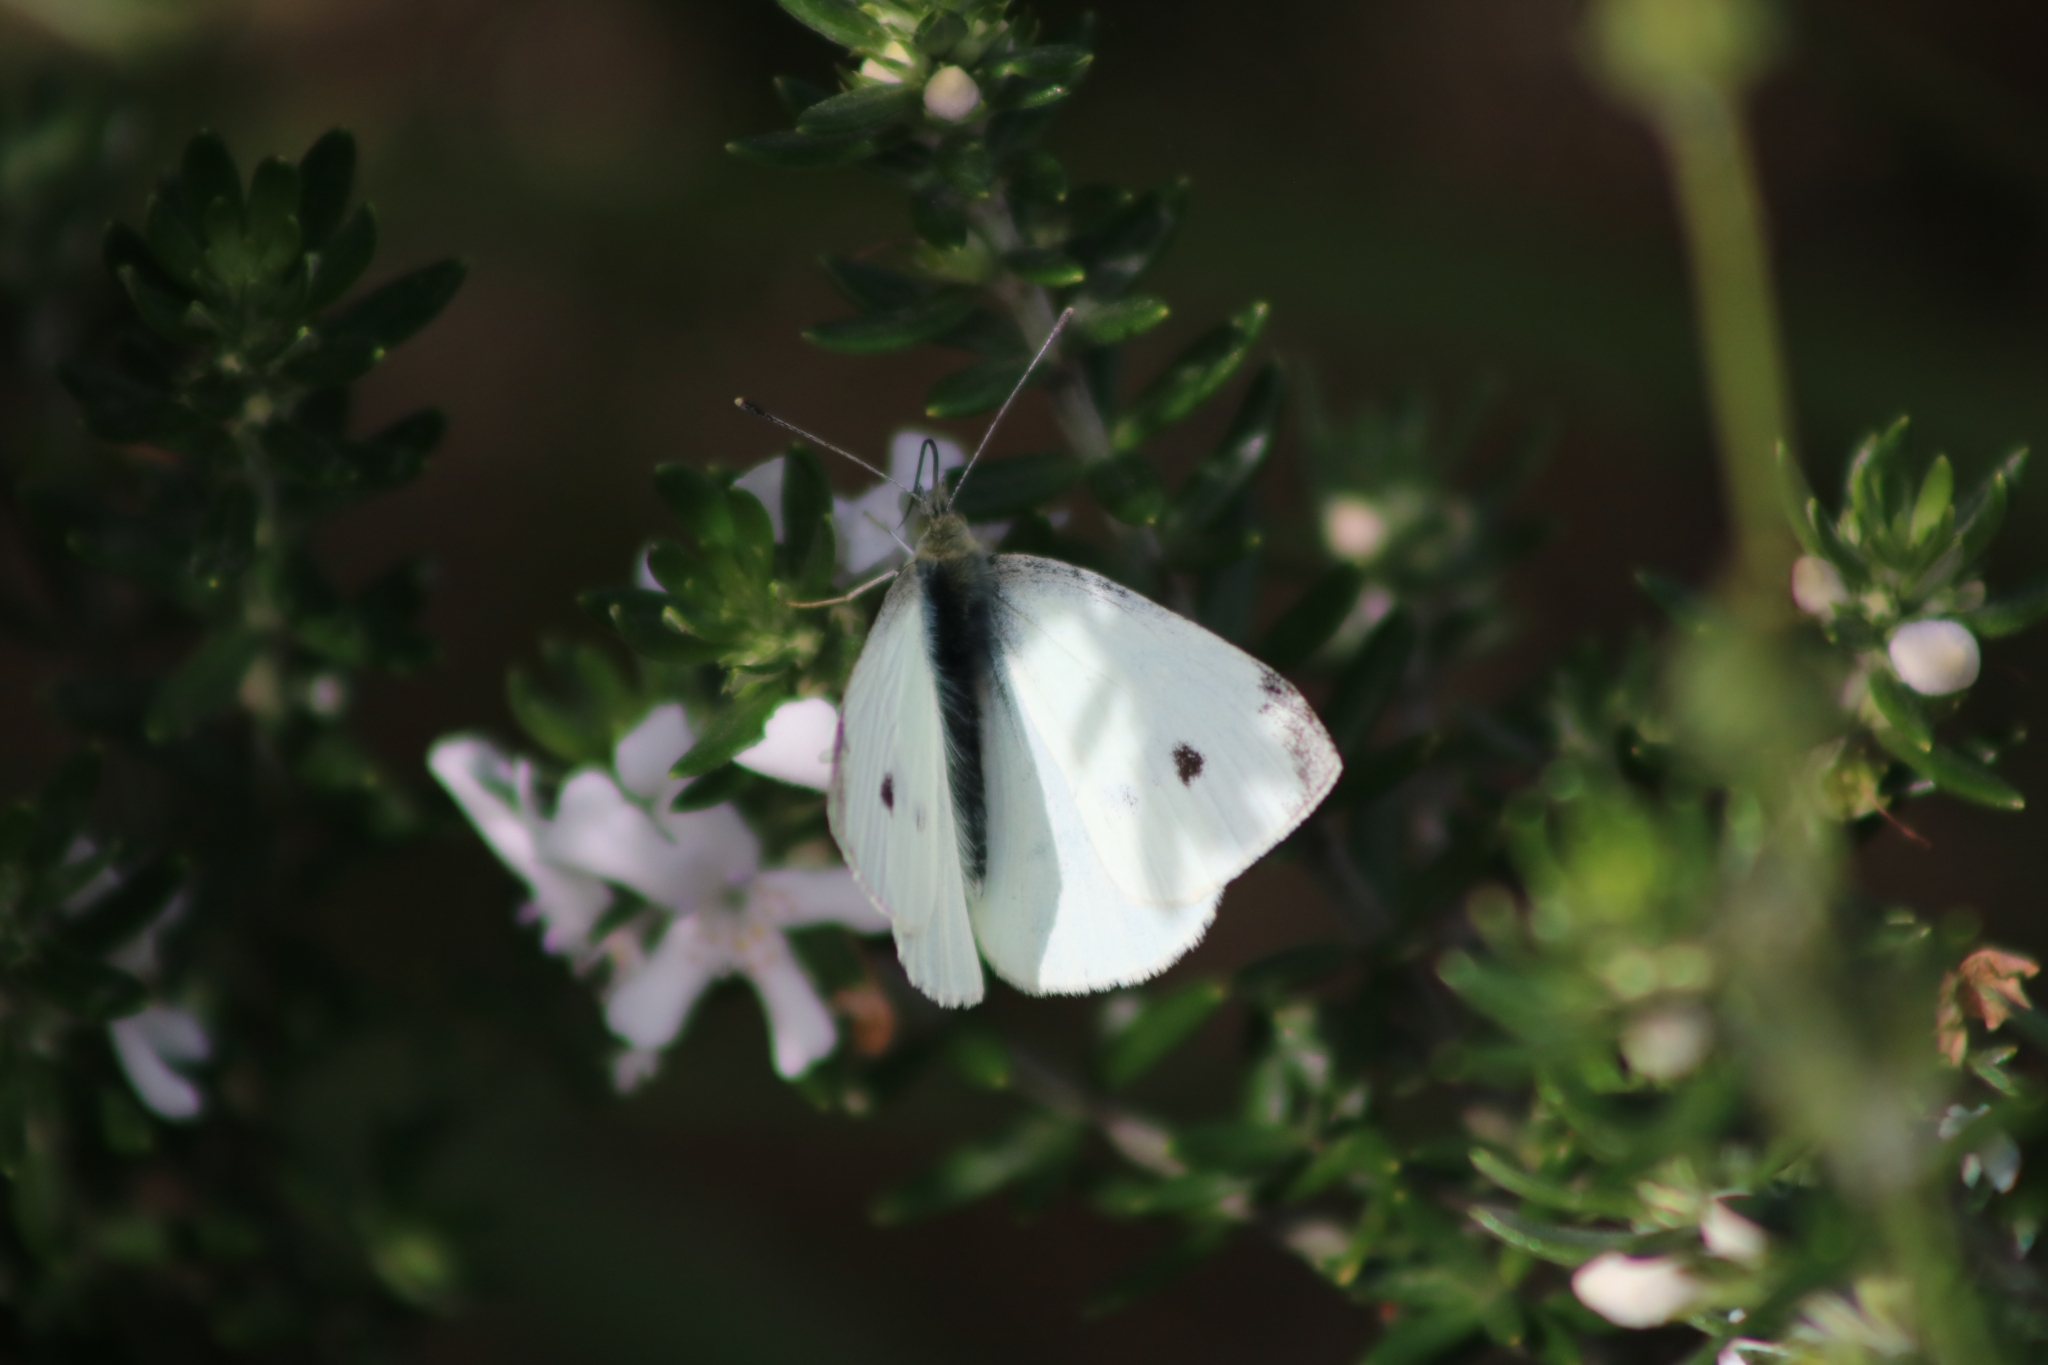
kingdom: Animalia
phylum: Arthropoda
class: Insecta
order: Lepidoptera
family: Pieridae
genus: Pieris
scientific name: Pieris rapae
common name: Small white
